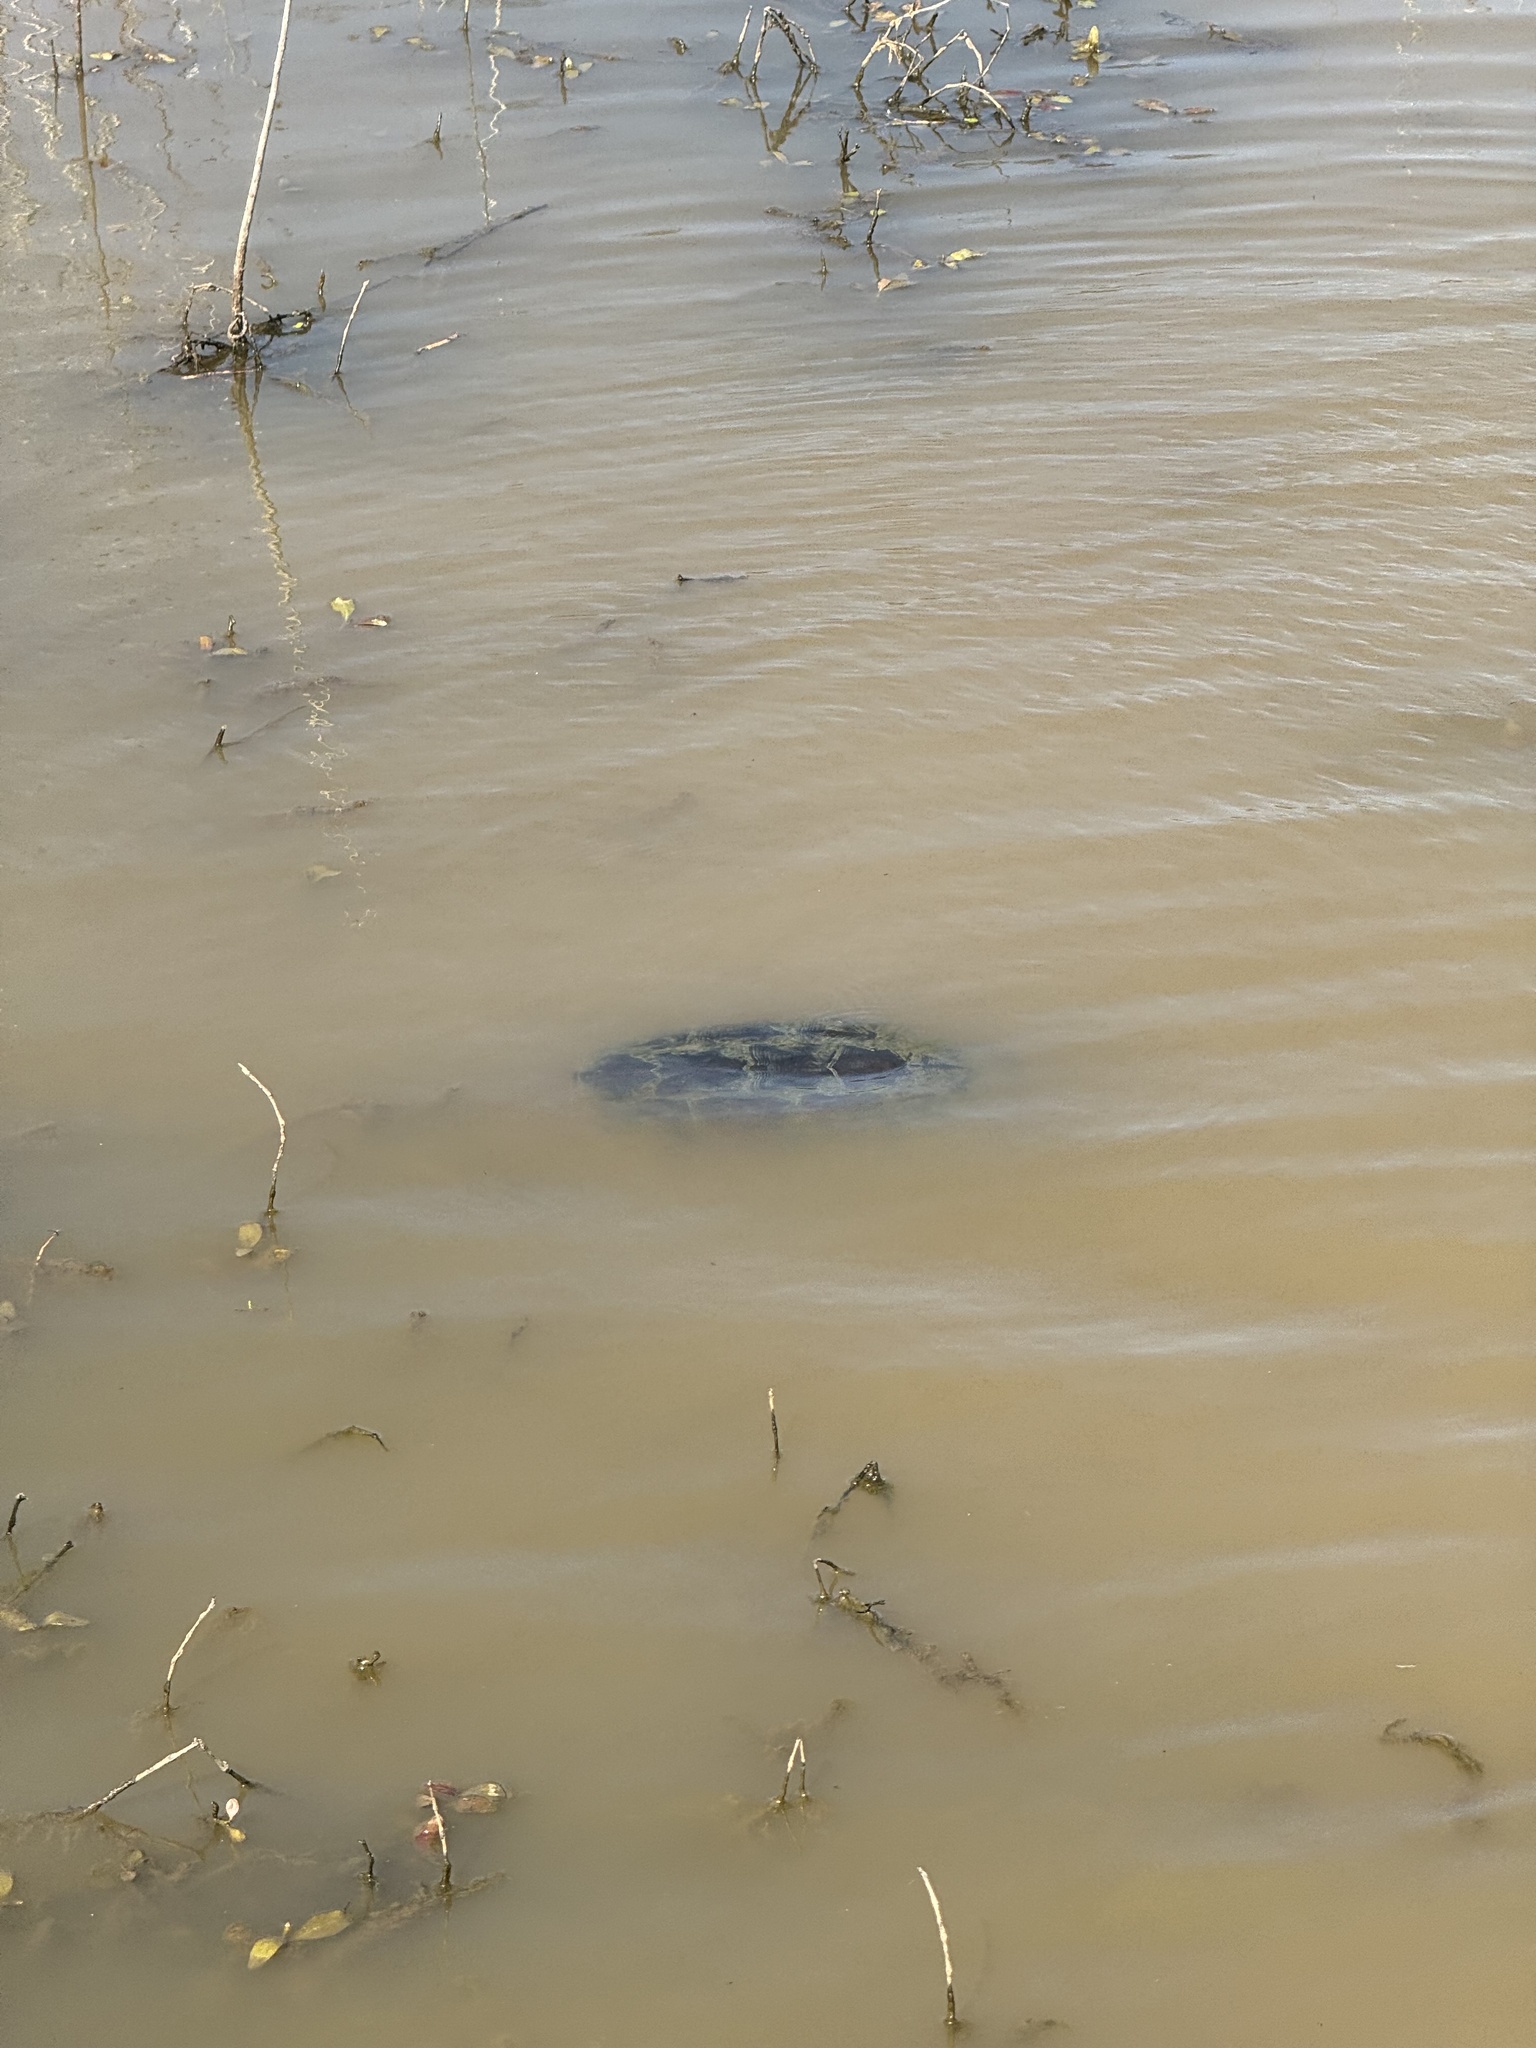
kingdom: Animalia
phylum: Chordata
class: Testudines
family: Chelydridae
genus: Chelydra
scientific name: Chelydra serpentina
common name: Common snapping turtle
